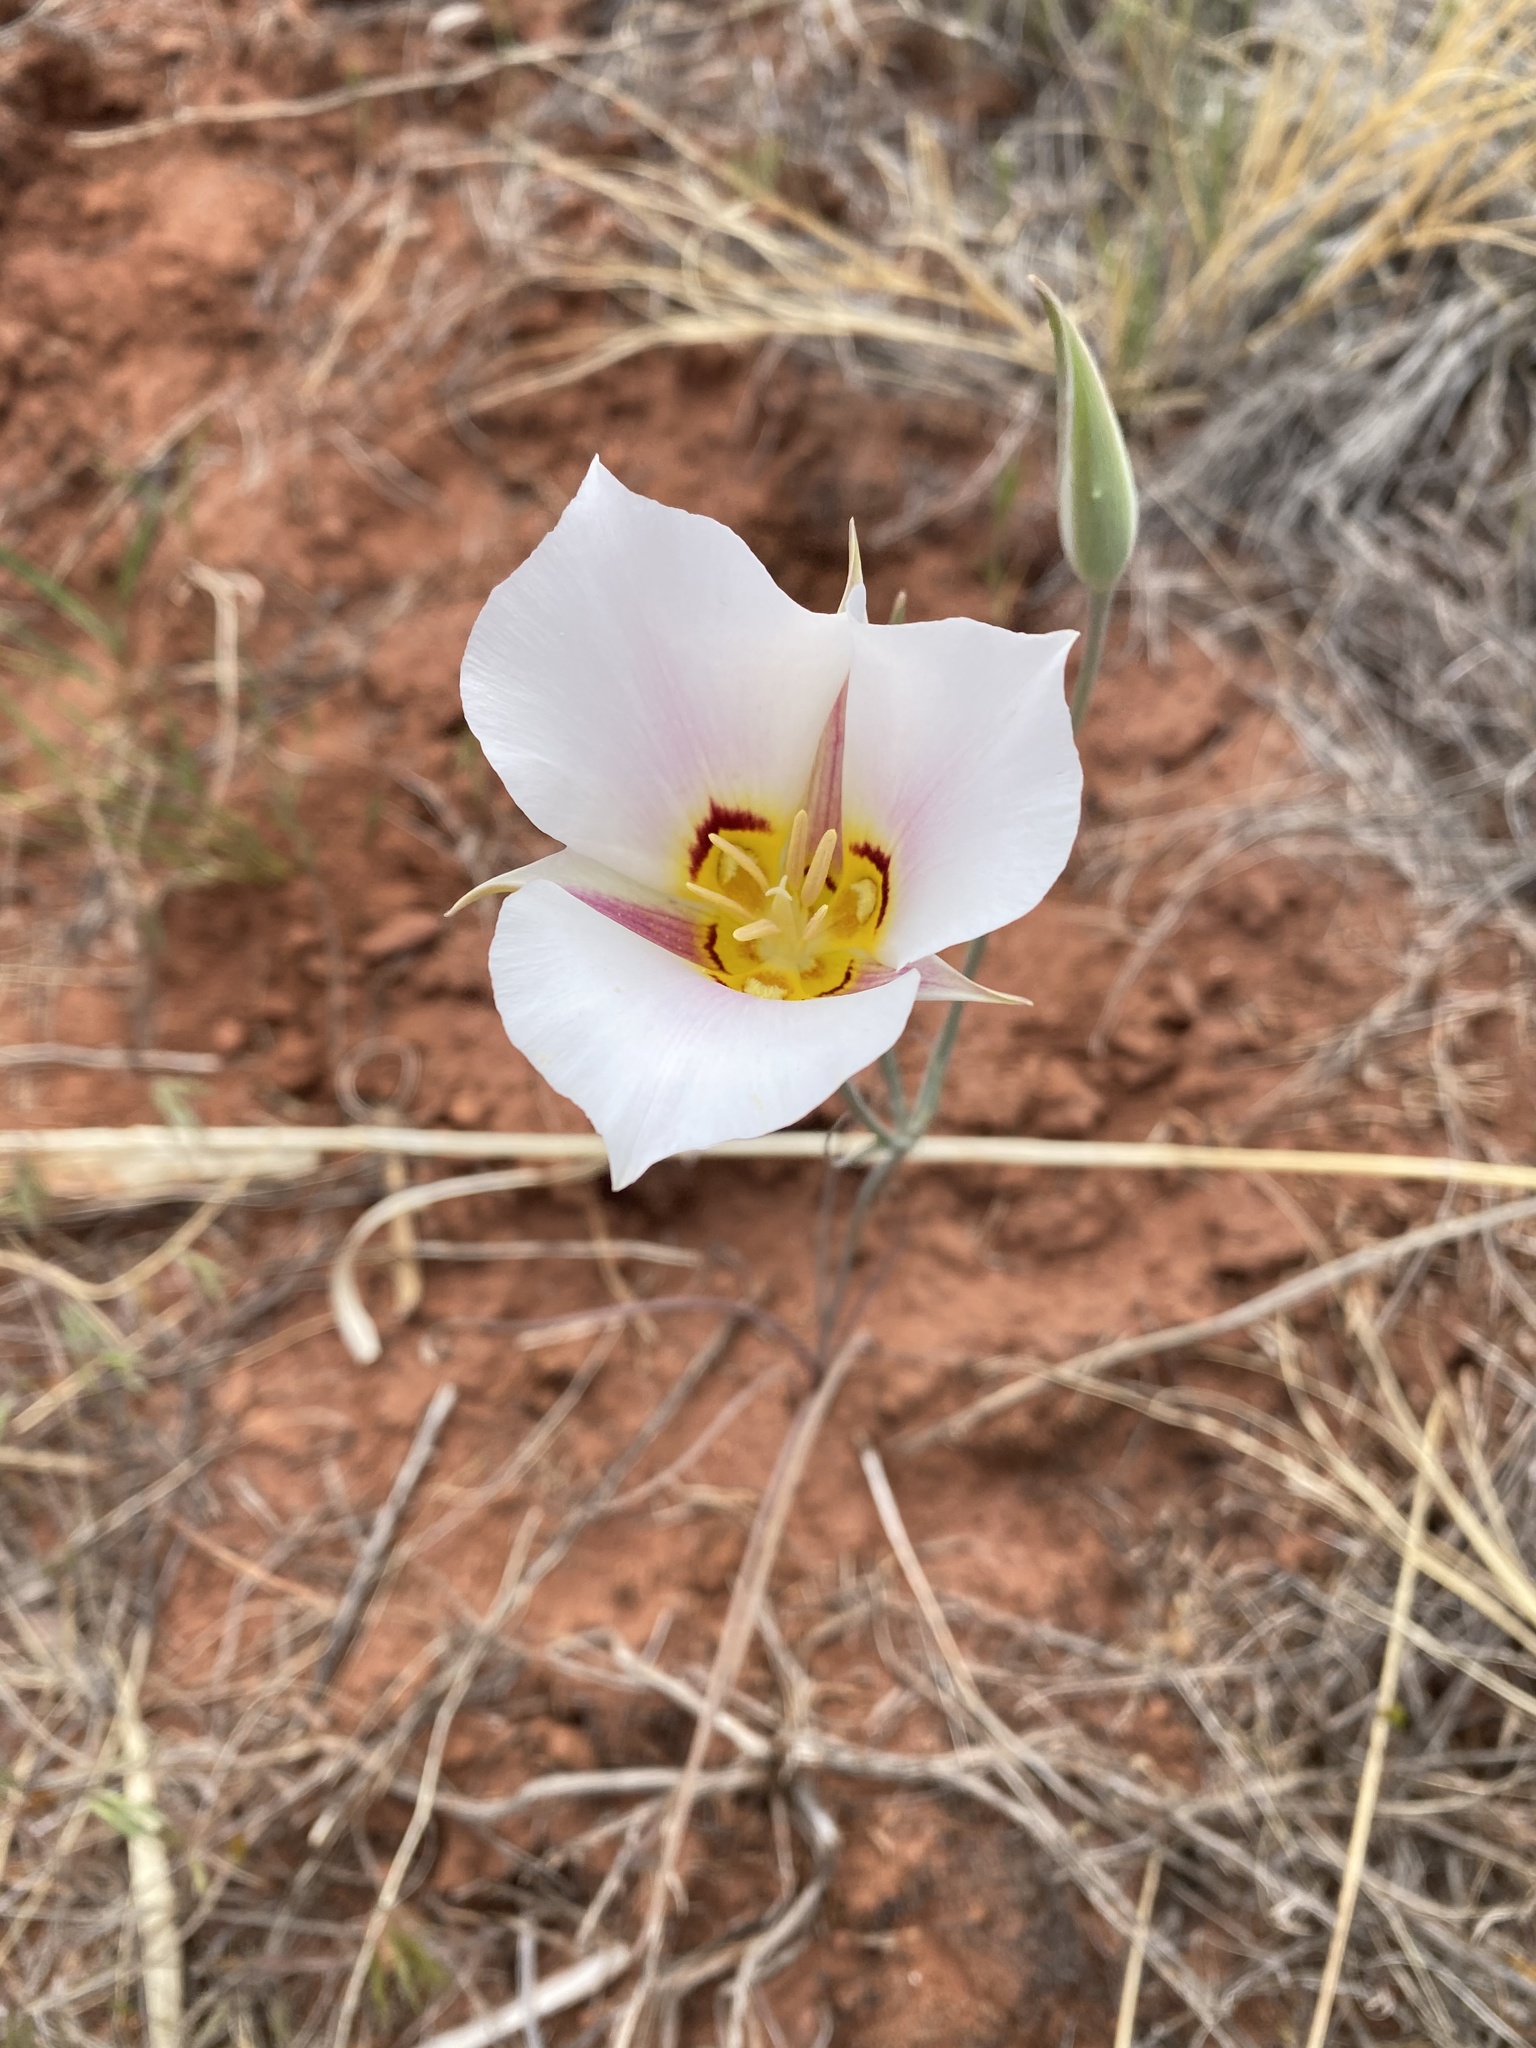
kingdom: Plantae
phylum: Tracheophyta
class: Liliopsida
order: Liliales
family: Liliaceae
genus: Calochortus
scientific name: Calochortus nuttallii
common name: Sego-lily
